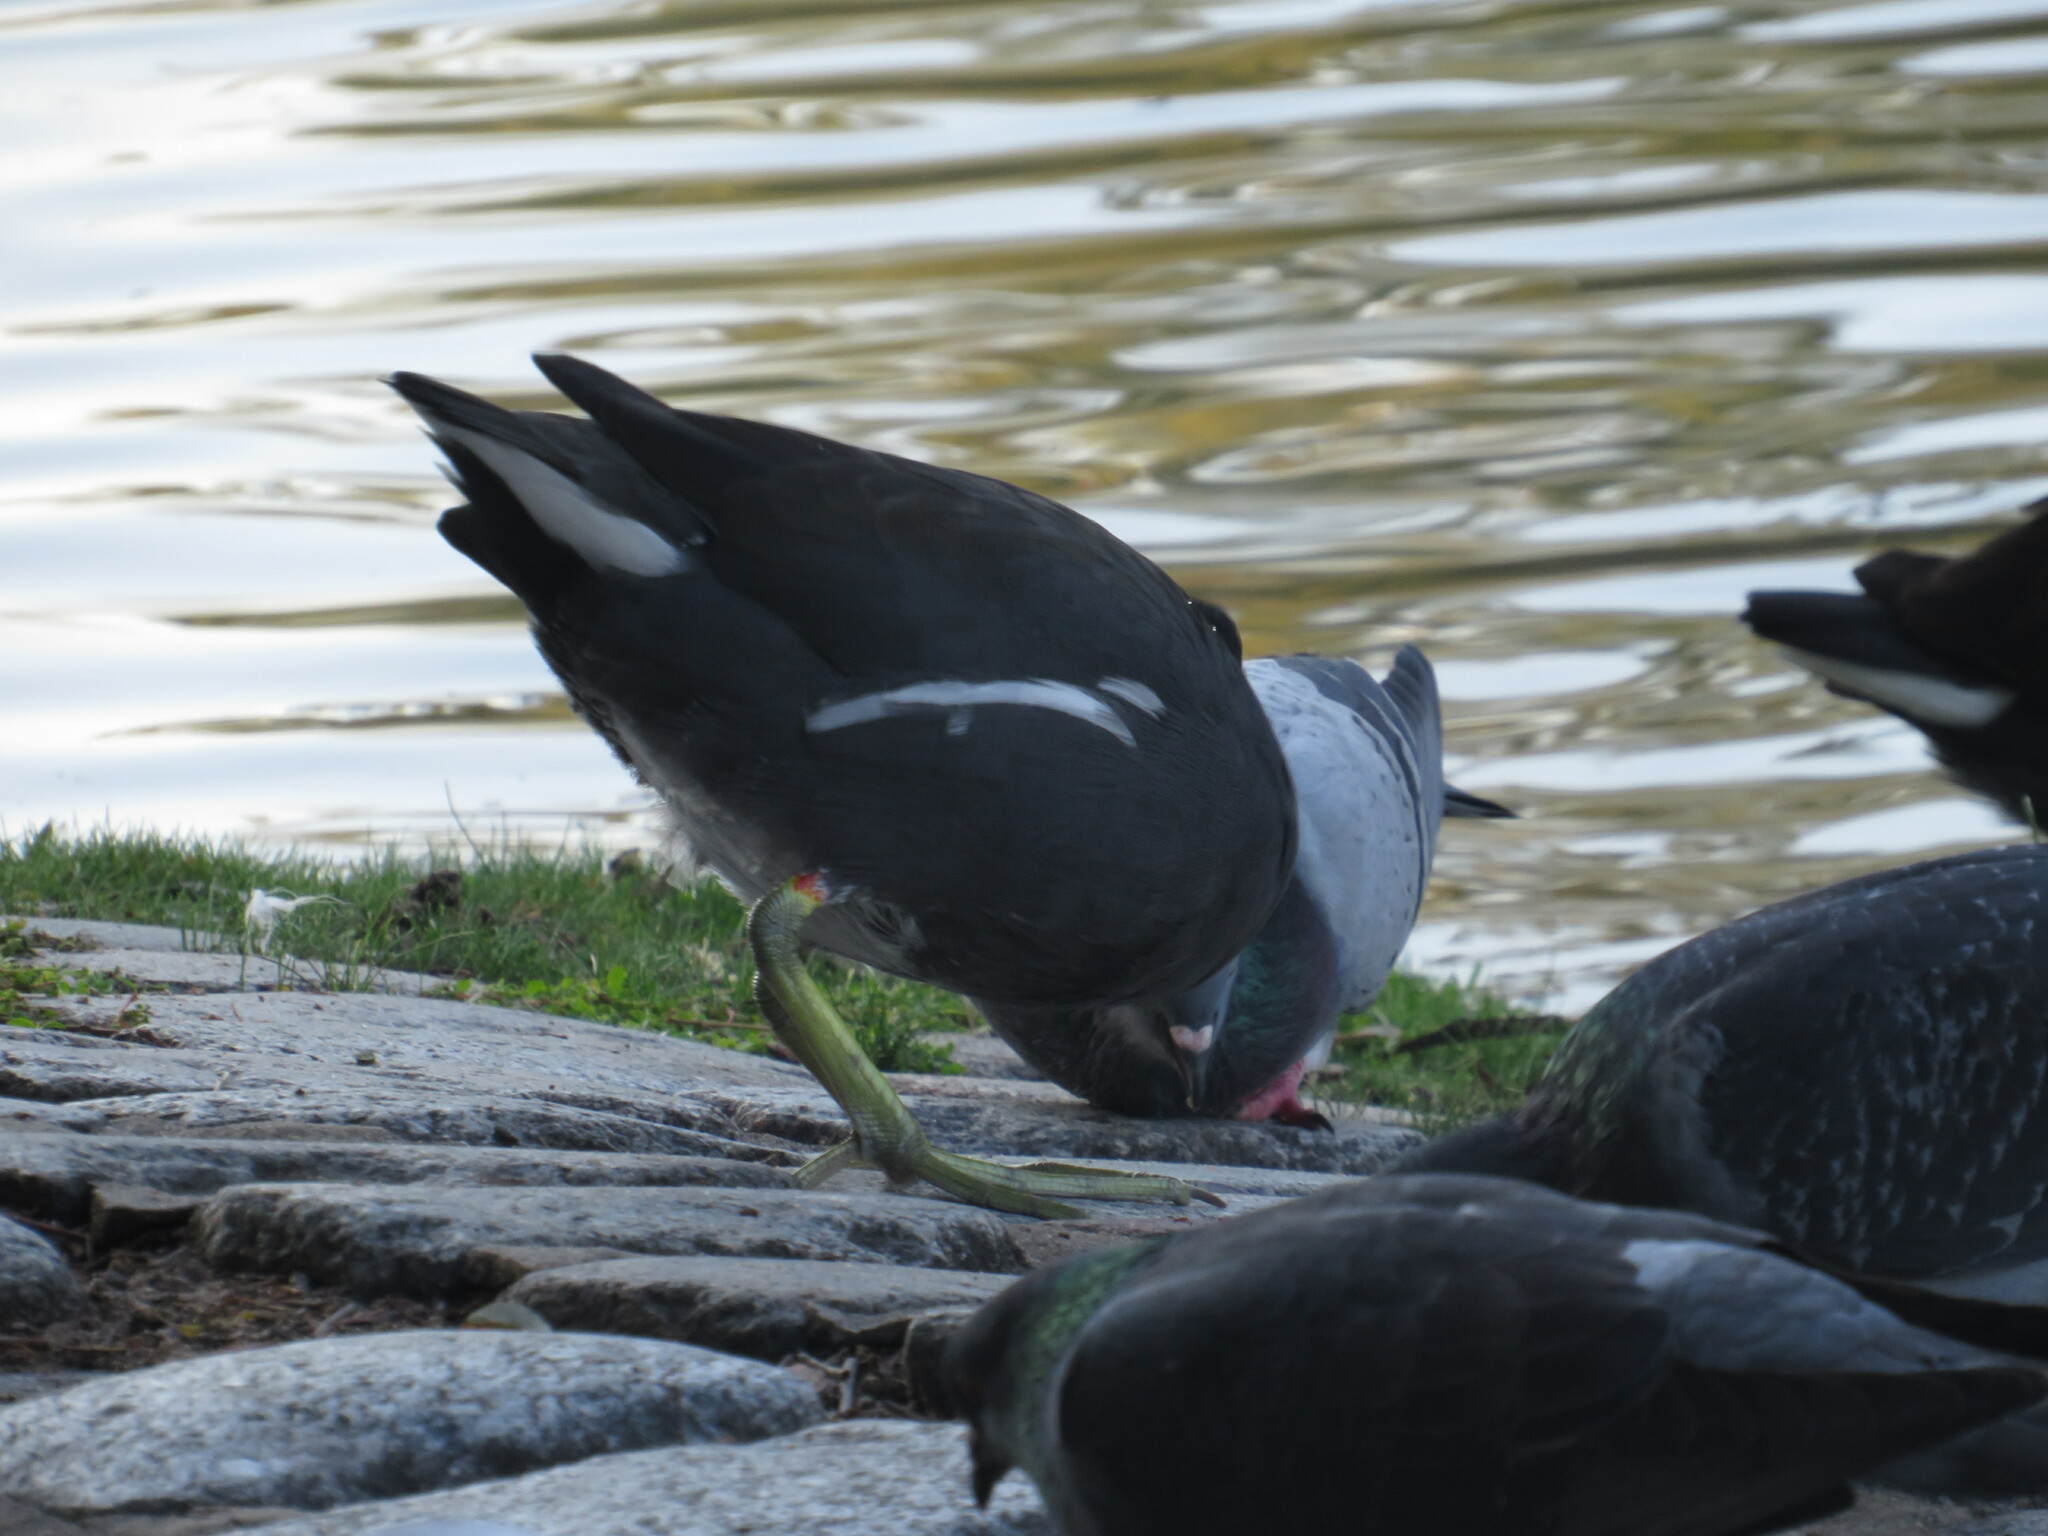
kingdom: Animalia
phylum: Chordata
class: Aves
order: Gruiformes
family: Rallidae
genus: Gallinula
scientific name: Gallinula chloropus
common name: Common moorhen
